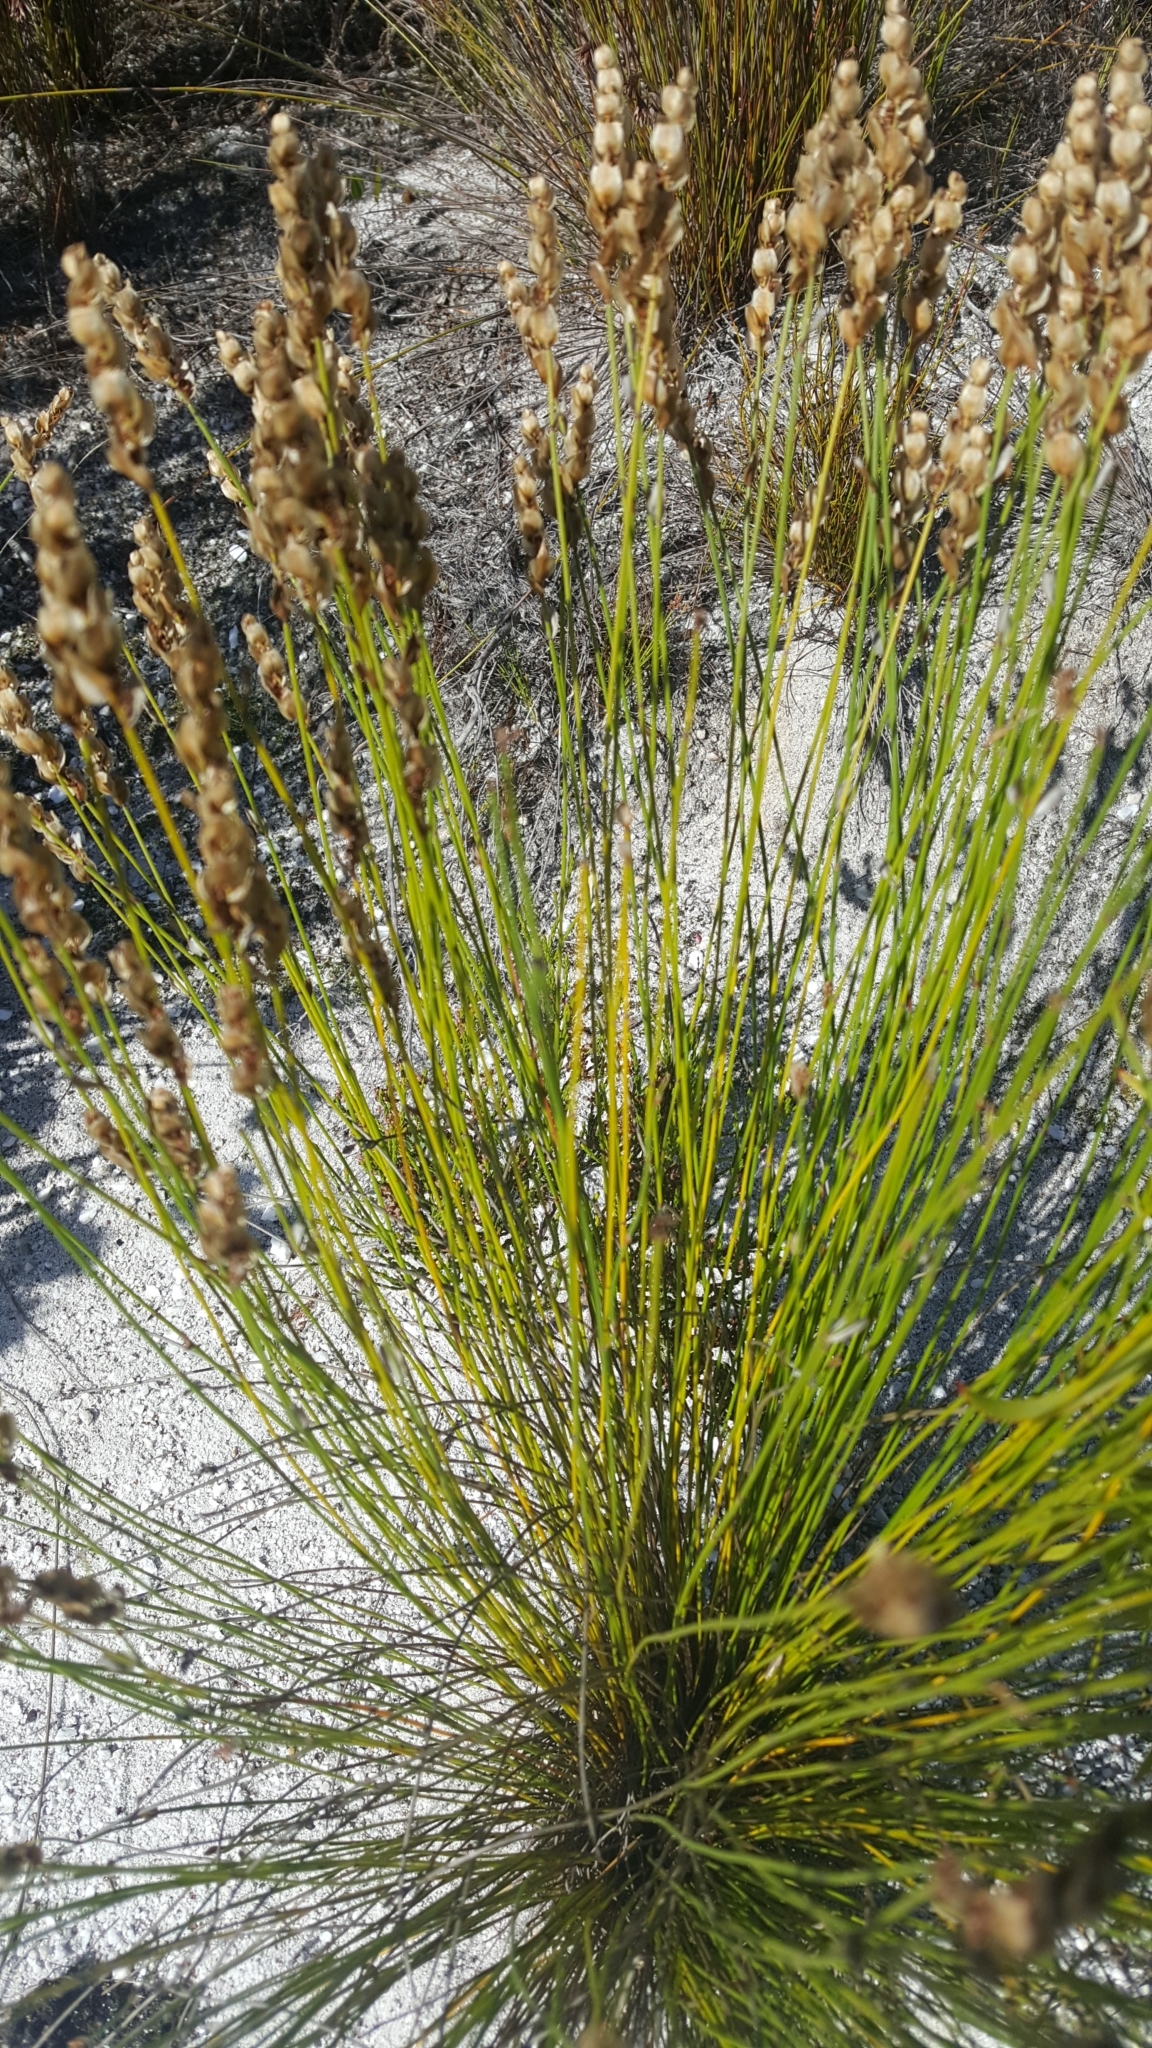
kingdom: Plantae
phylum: Tracheophyta
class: Liliopsida
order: Poales
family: Restionaceae
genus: Elegia
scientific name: Elegia filacea
